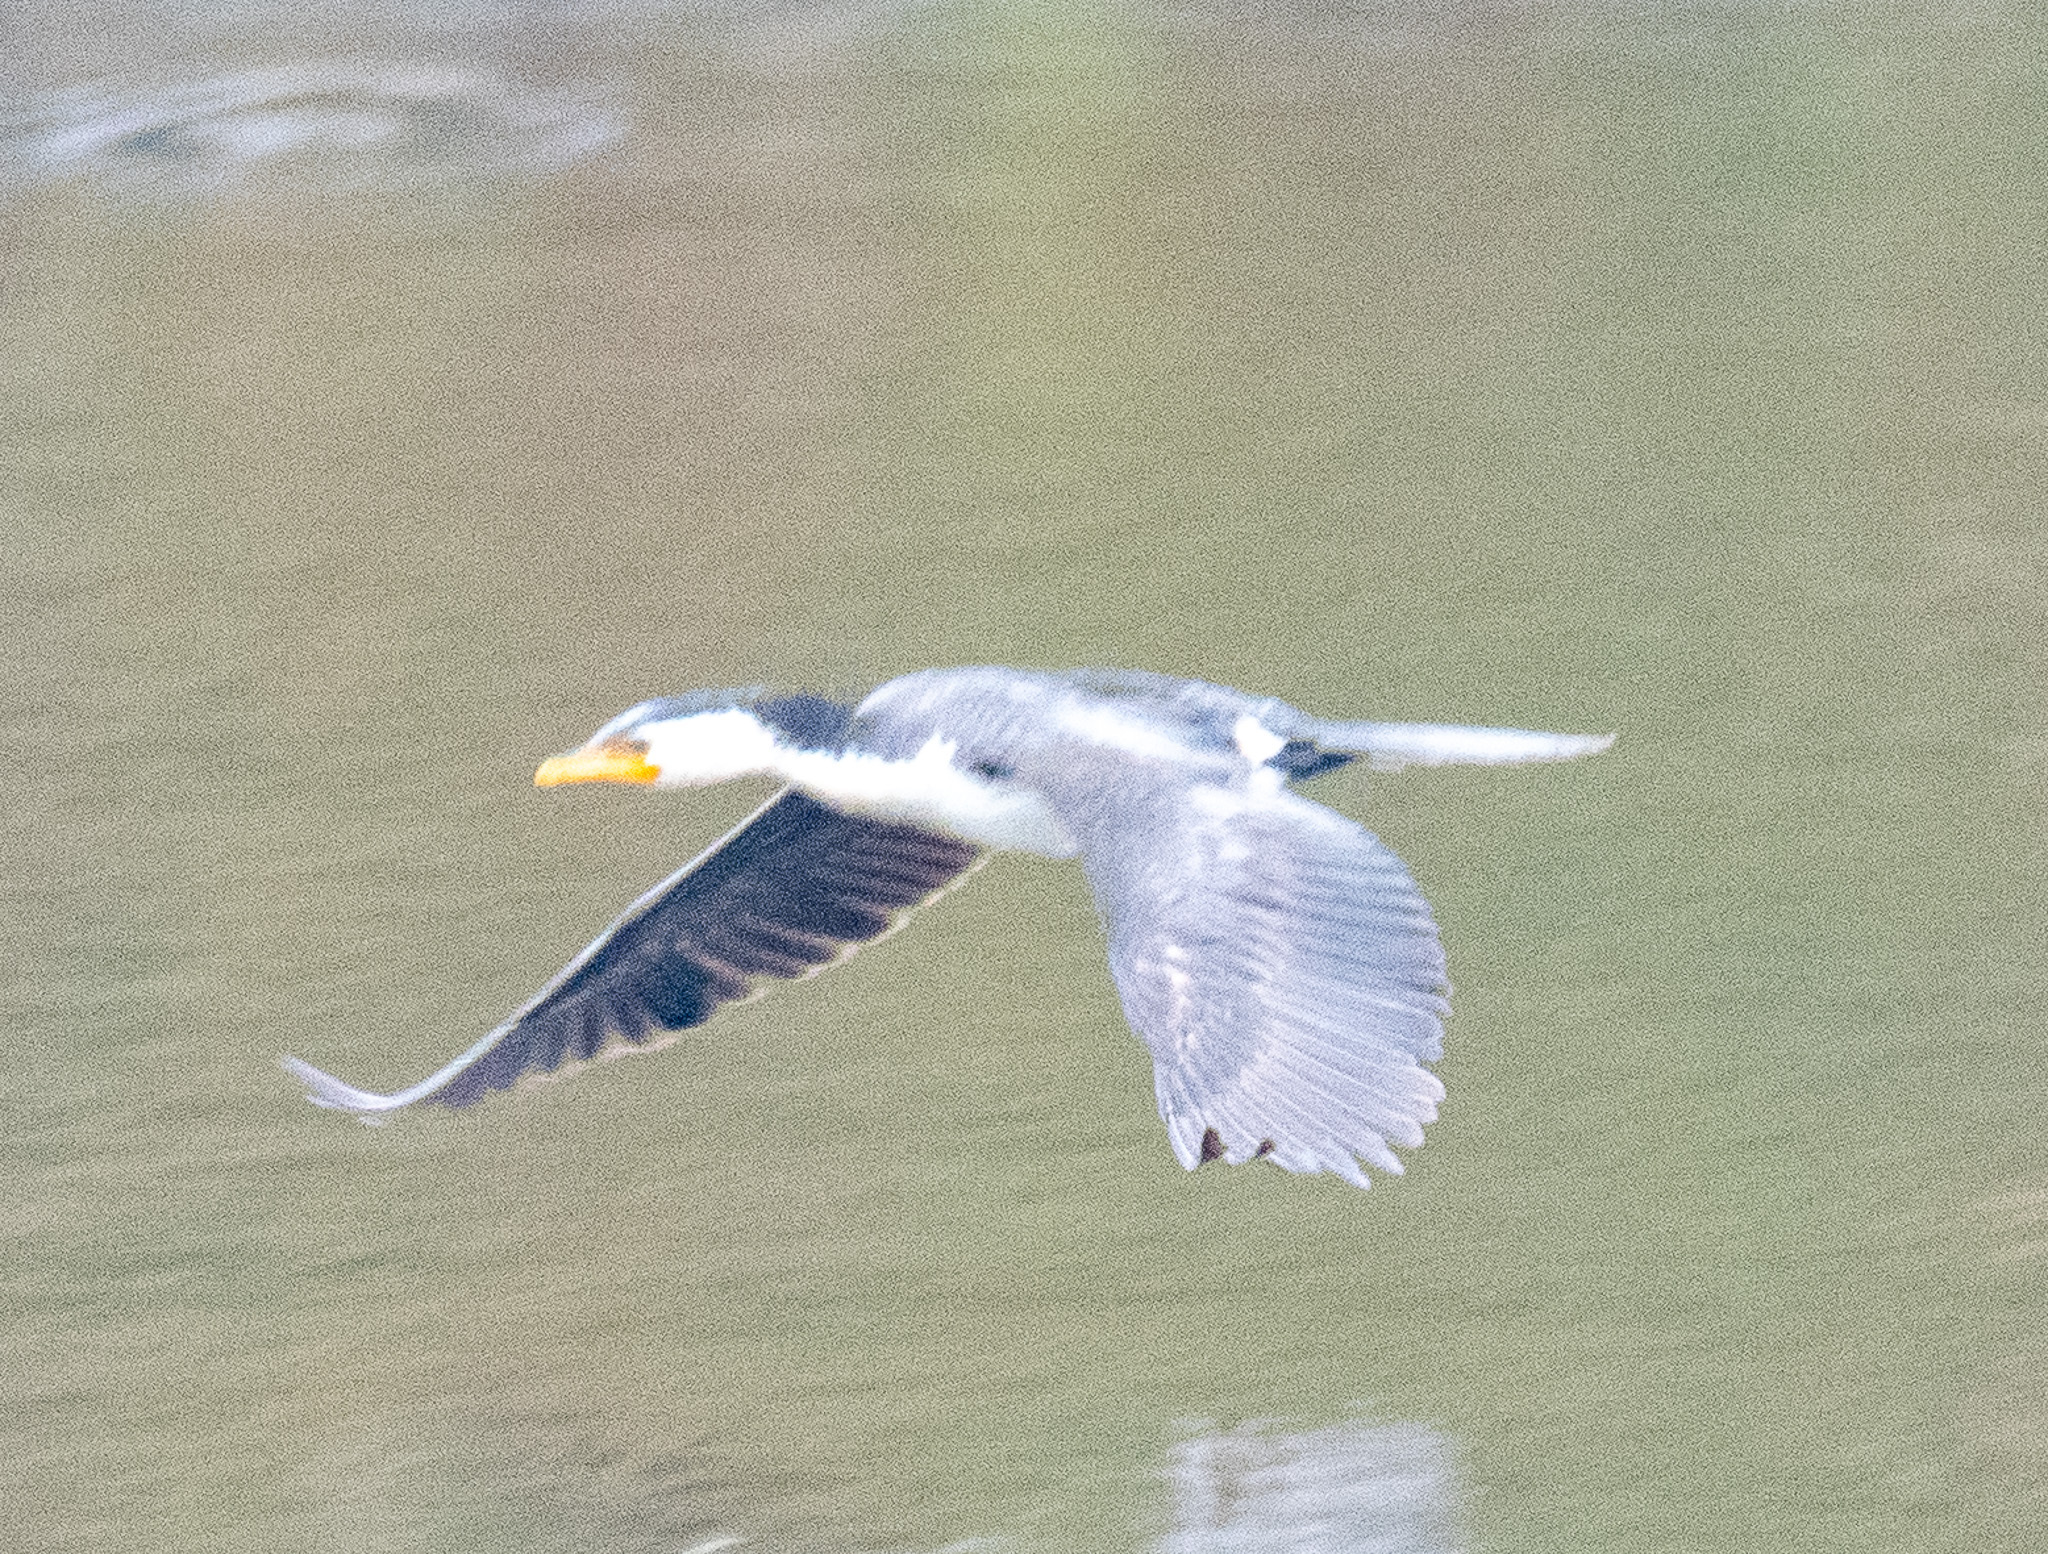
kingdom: Animalia
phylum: Chordata
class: Aves
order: Suliformes
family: Phalacrocoracidae
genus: Microcarbo
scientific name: Microcarbo melanoleucos
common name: Little pied cormorant
